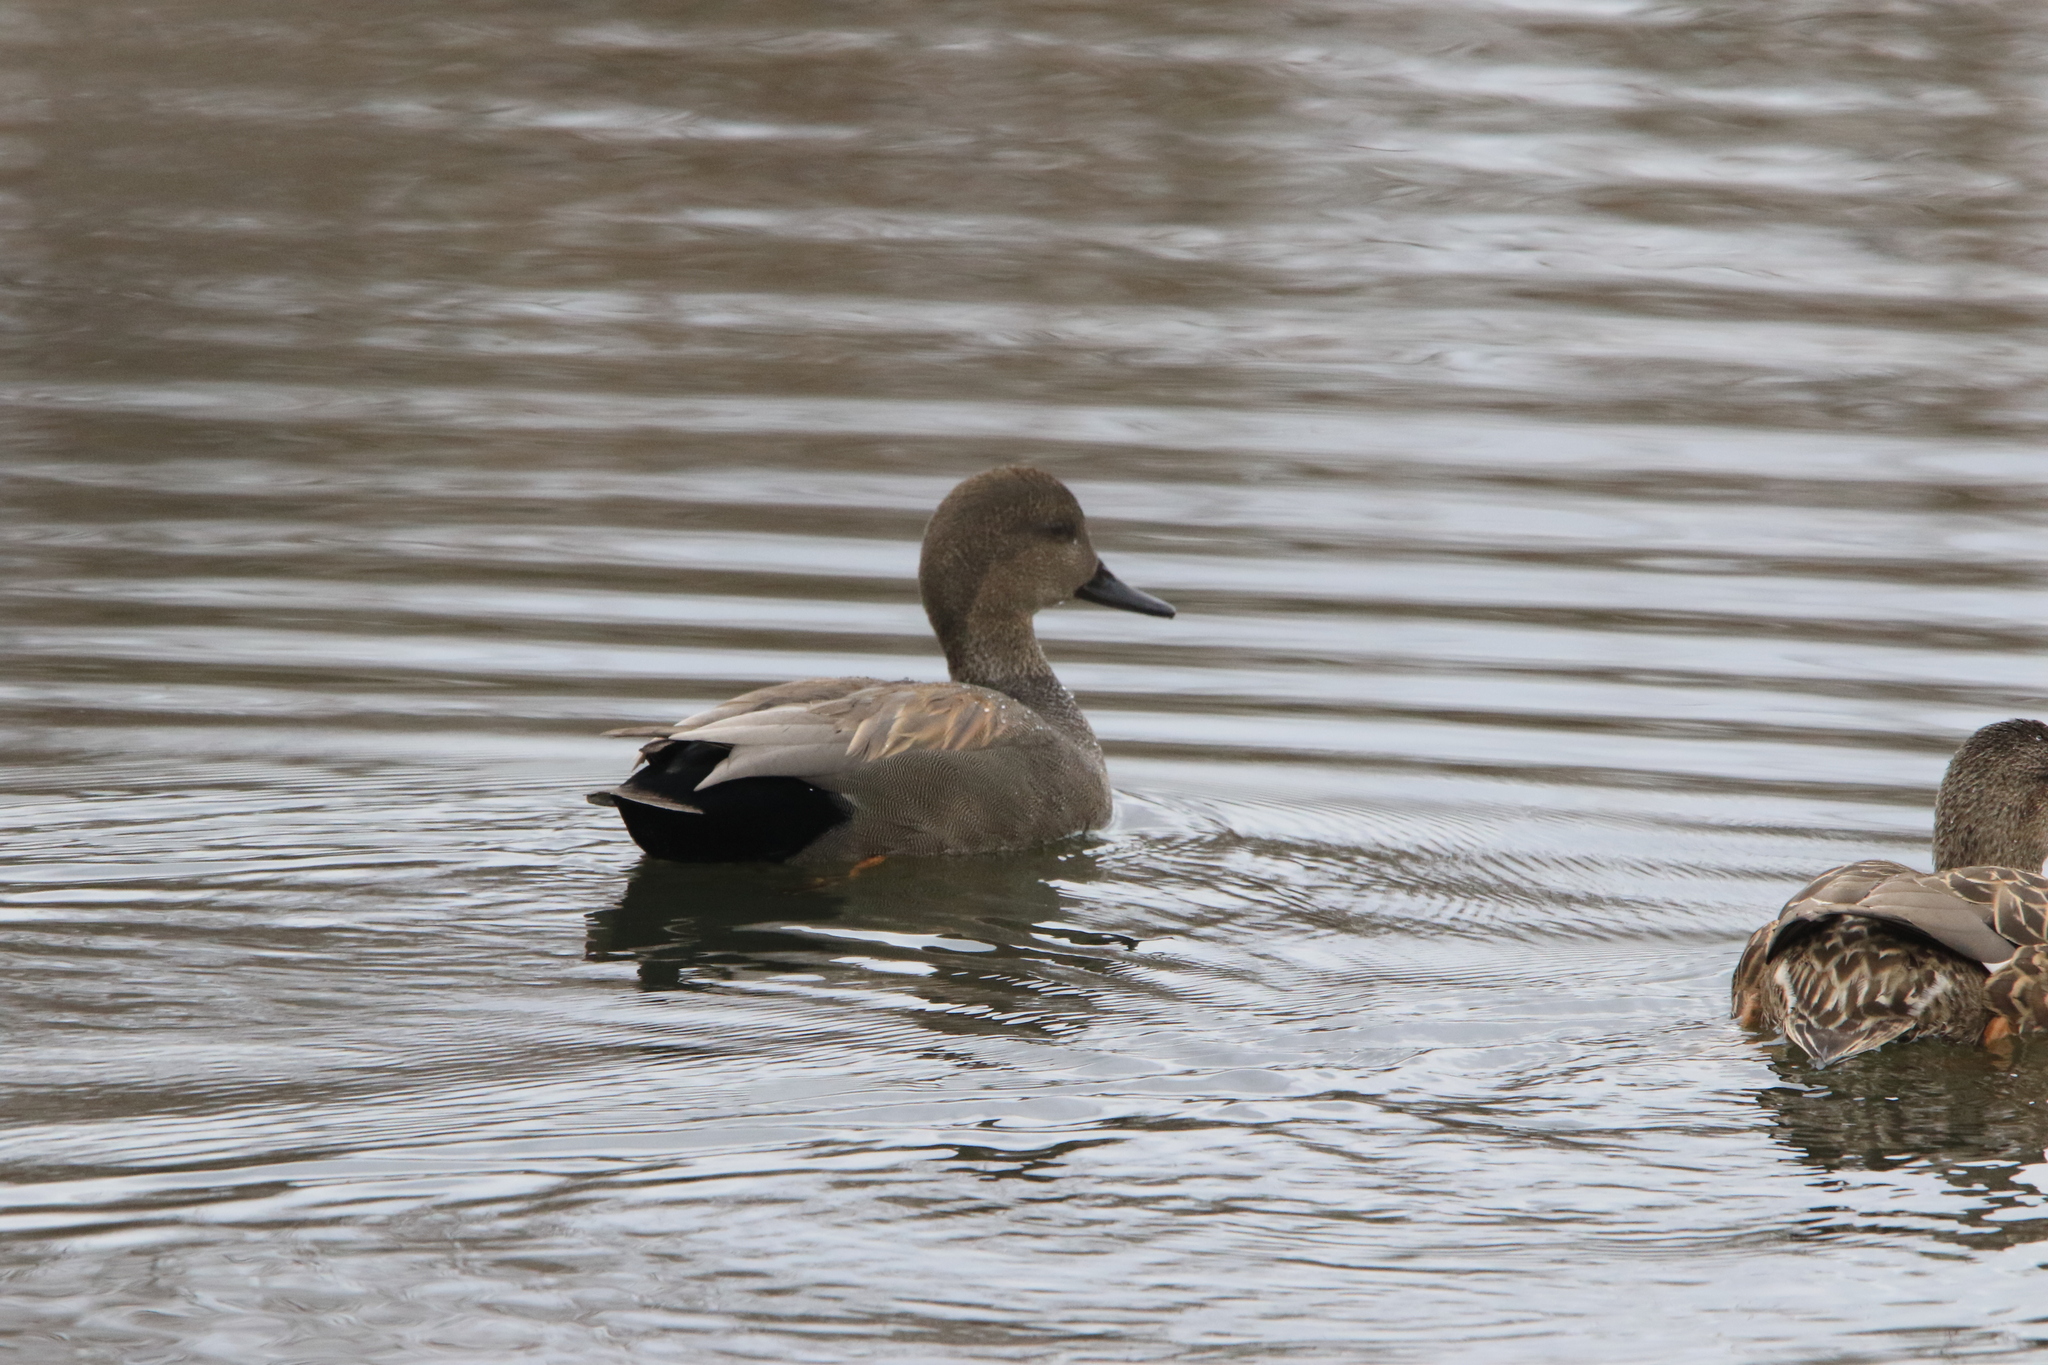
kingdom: Animalia
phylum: Chordata
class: Aves
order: Anseriformes
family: Anatidae
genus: Mareca
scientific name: Mareca strepera
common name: Gadwall
